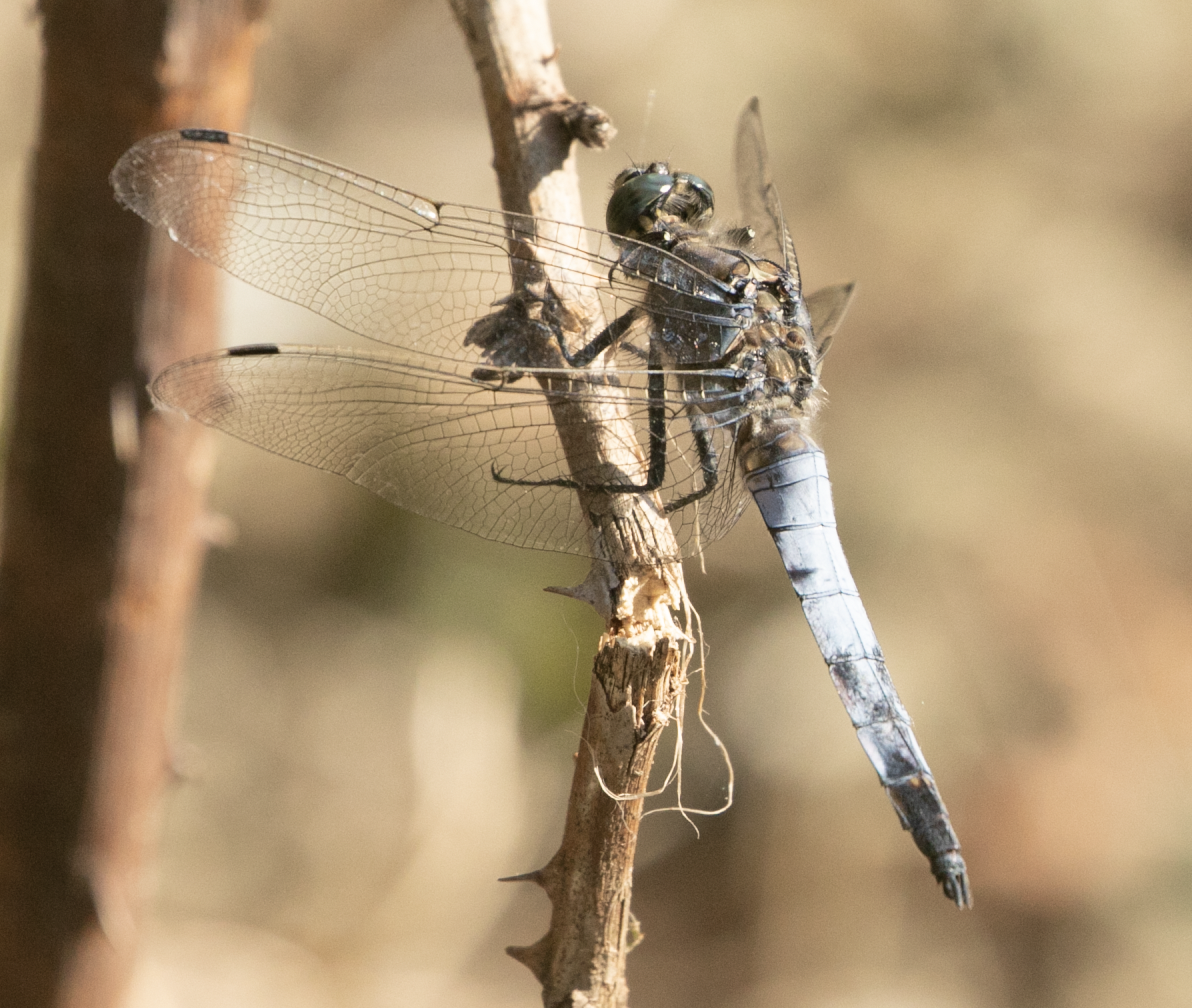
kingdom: Animalia
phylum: Arthropoda
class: Insecta
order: Odonata
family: Libellulidae
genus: Orthetrum
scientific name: Orthetrum cancellatum
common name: Black-tailed skimmer
